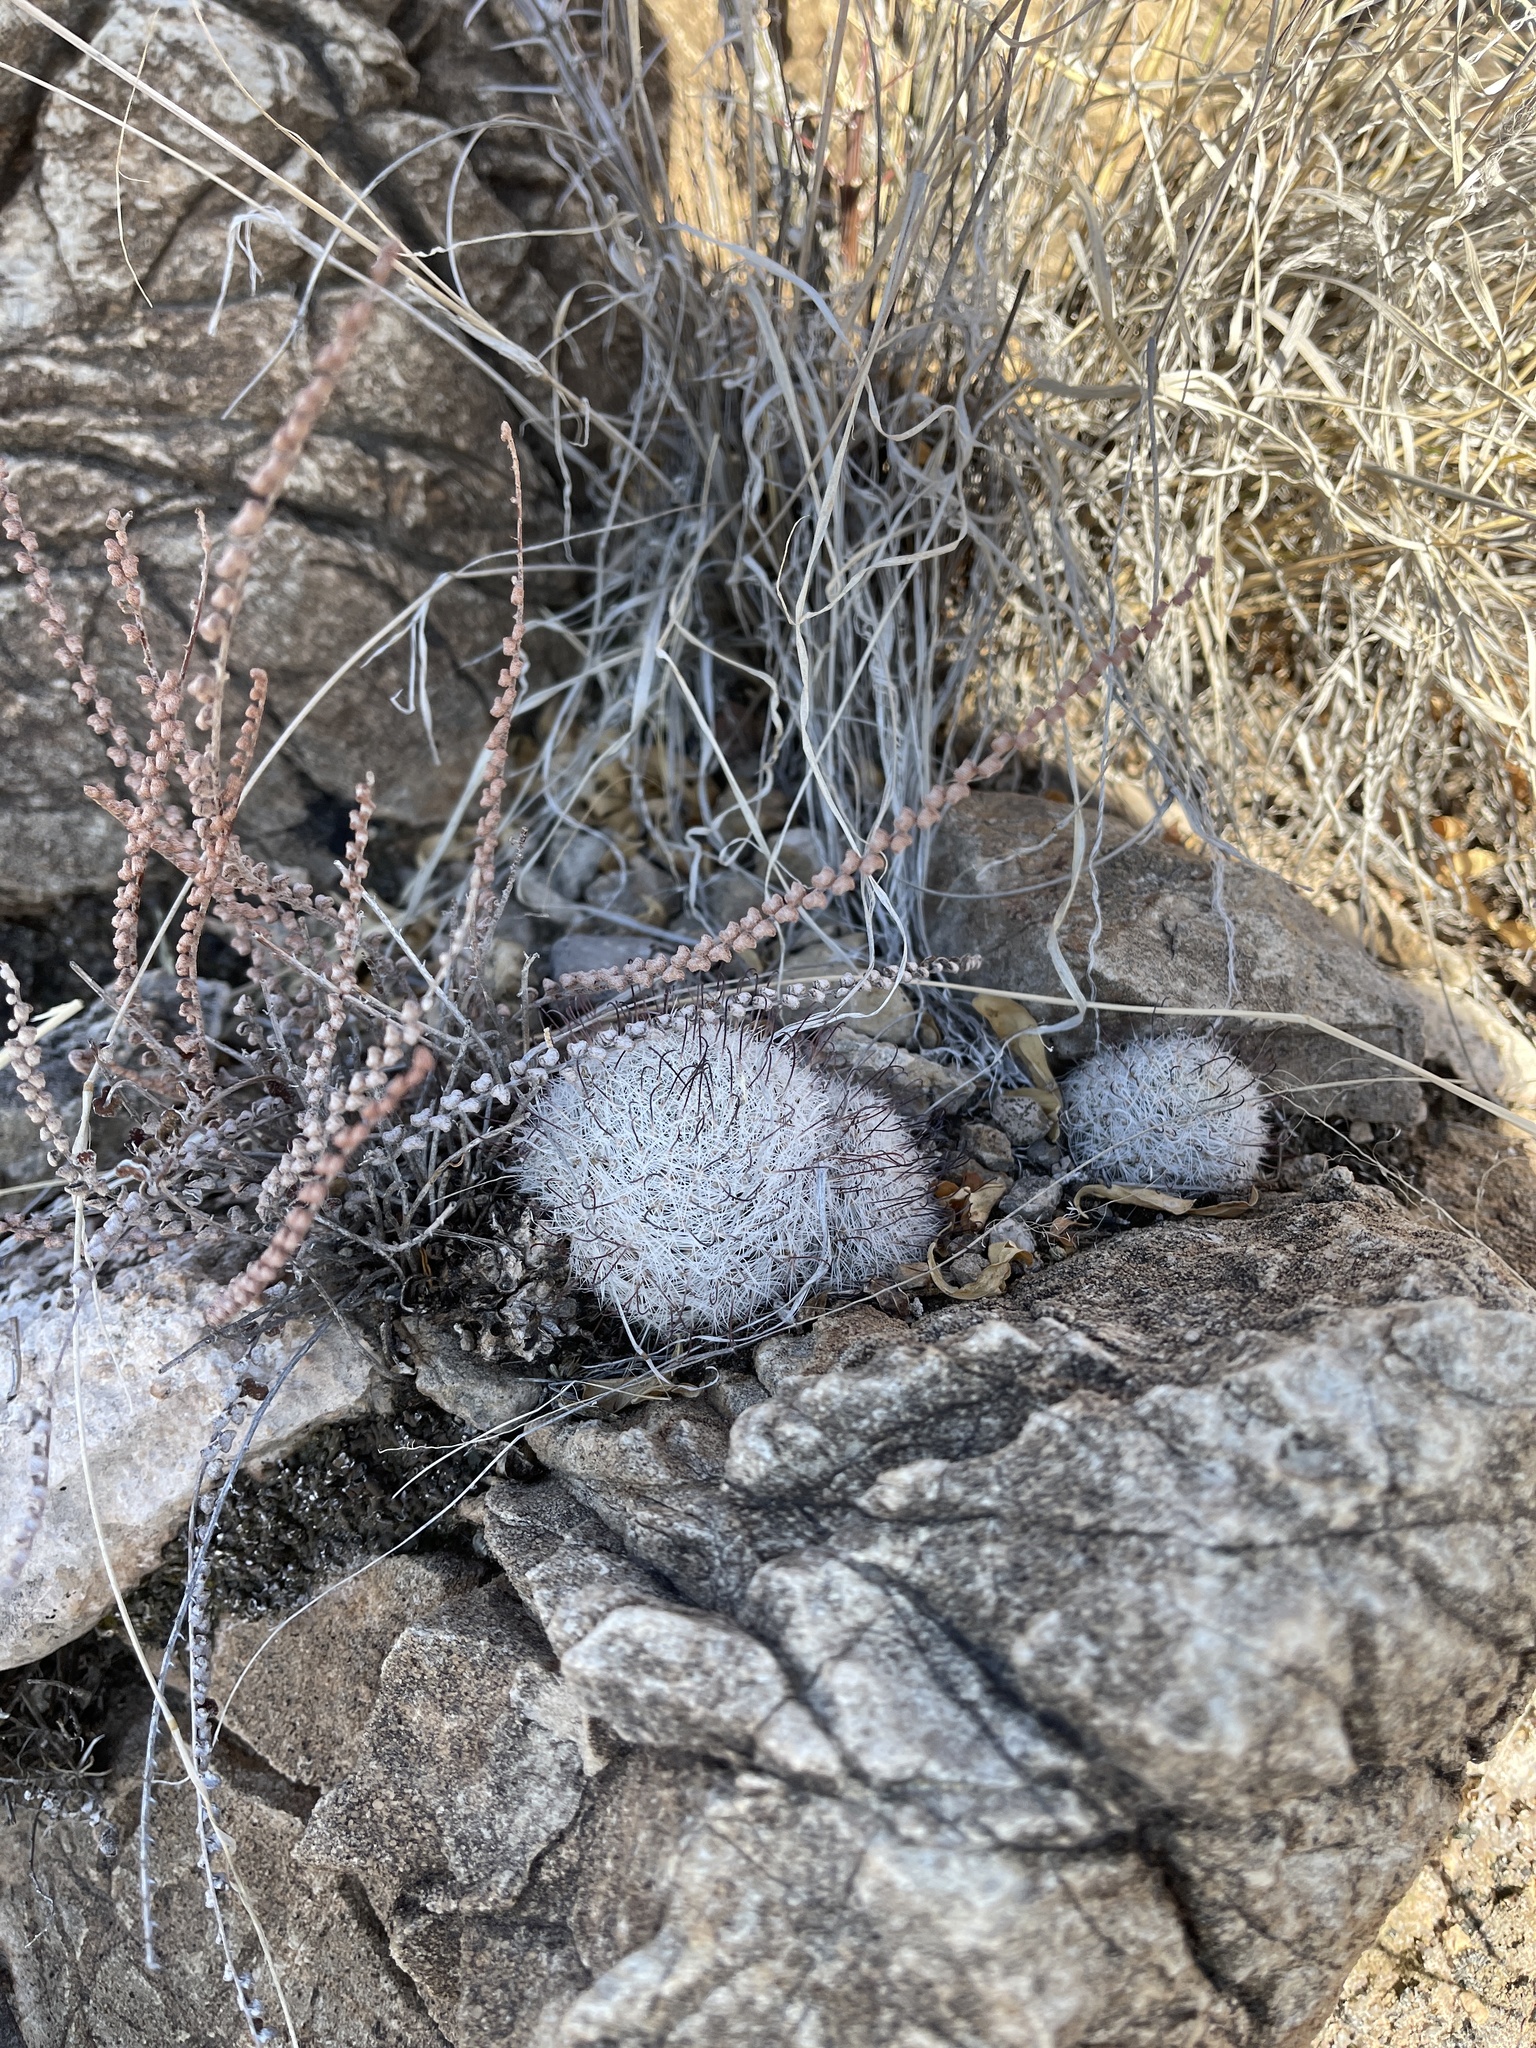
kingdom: Plantae
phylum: Tracheophyta
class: Magnoliopsida
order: Caryophyllales
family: Cactaceae
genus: Cochemiea
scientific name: Cochemiea grahamii
